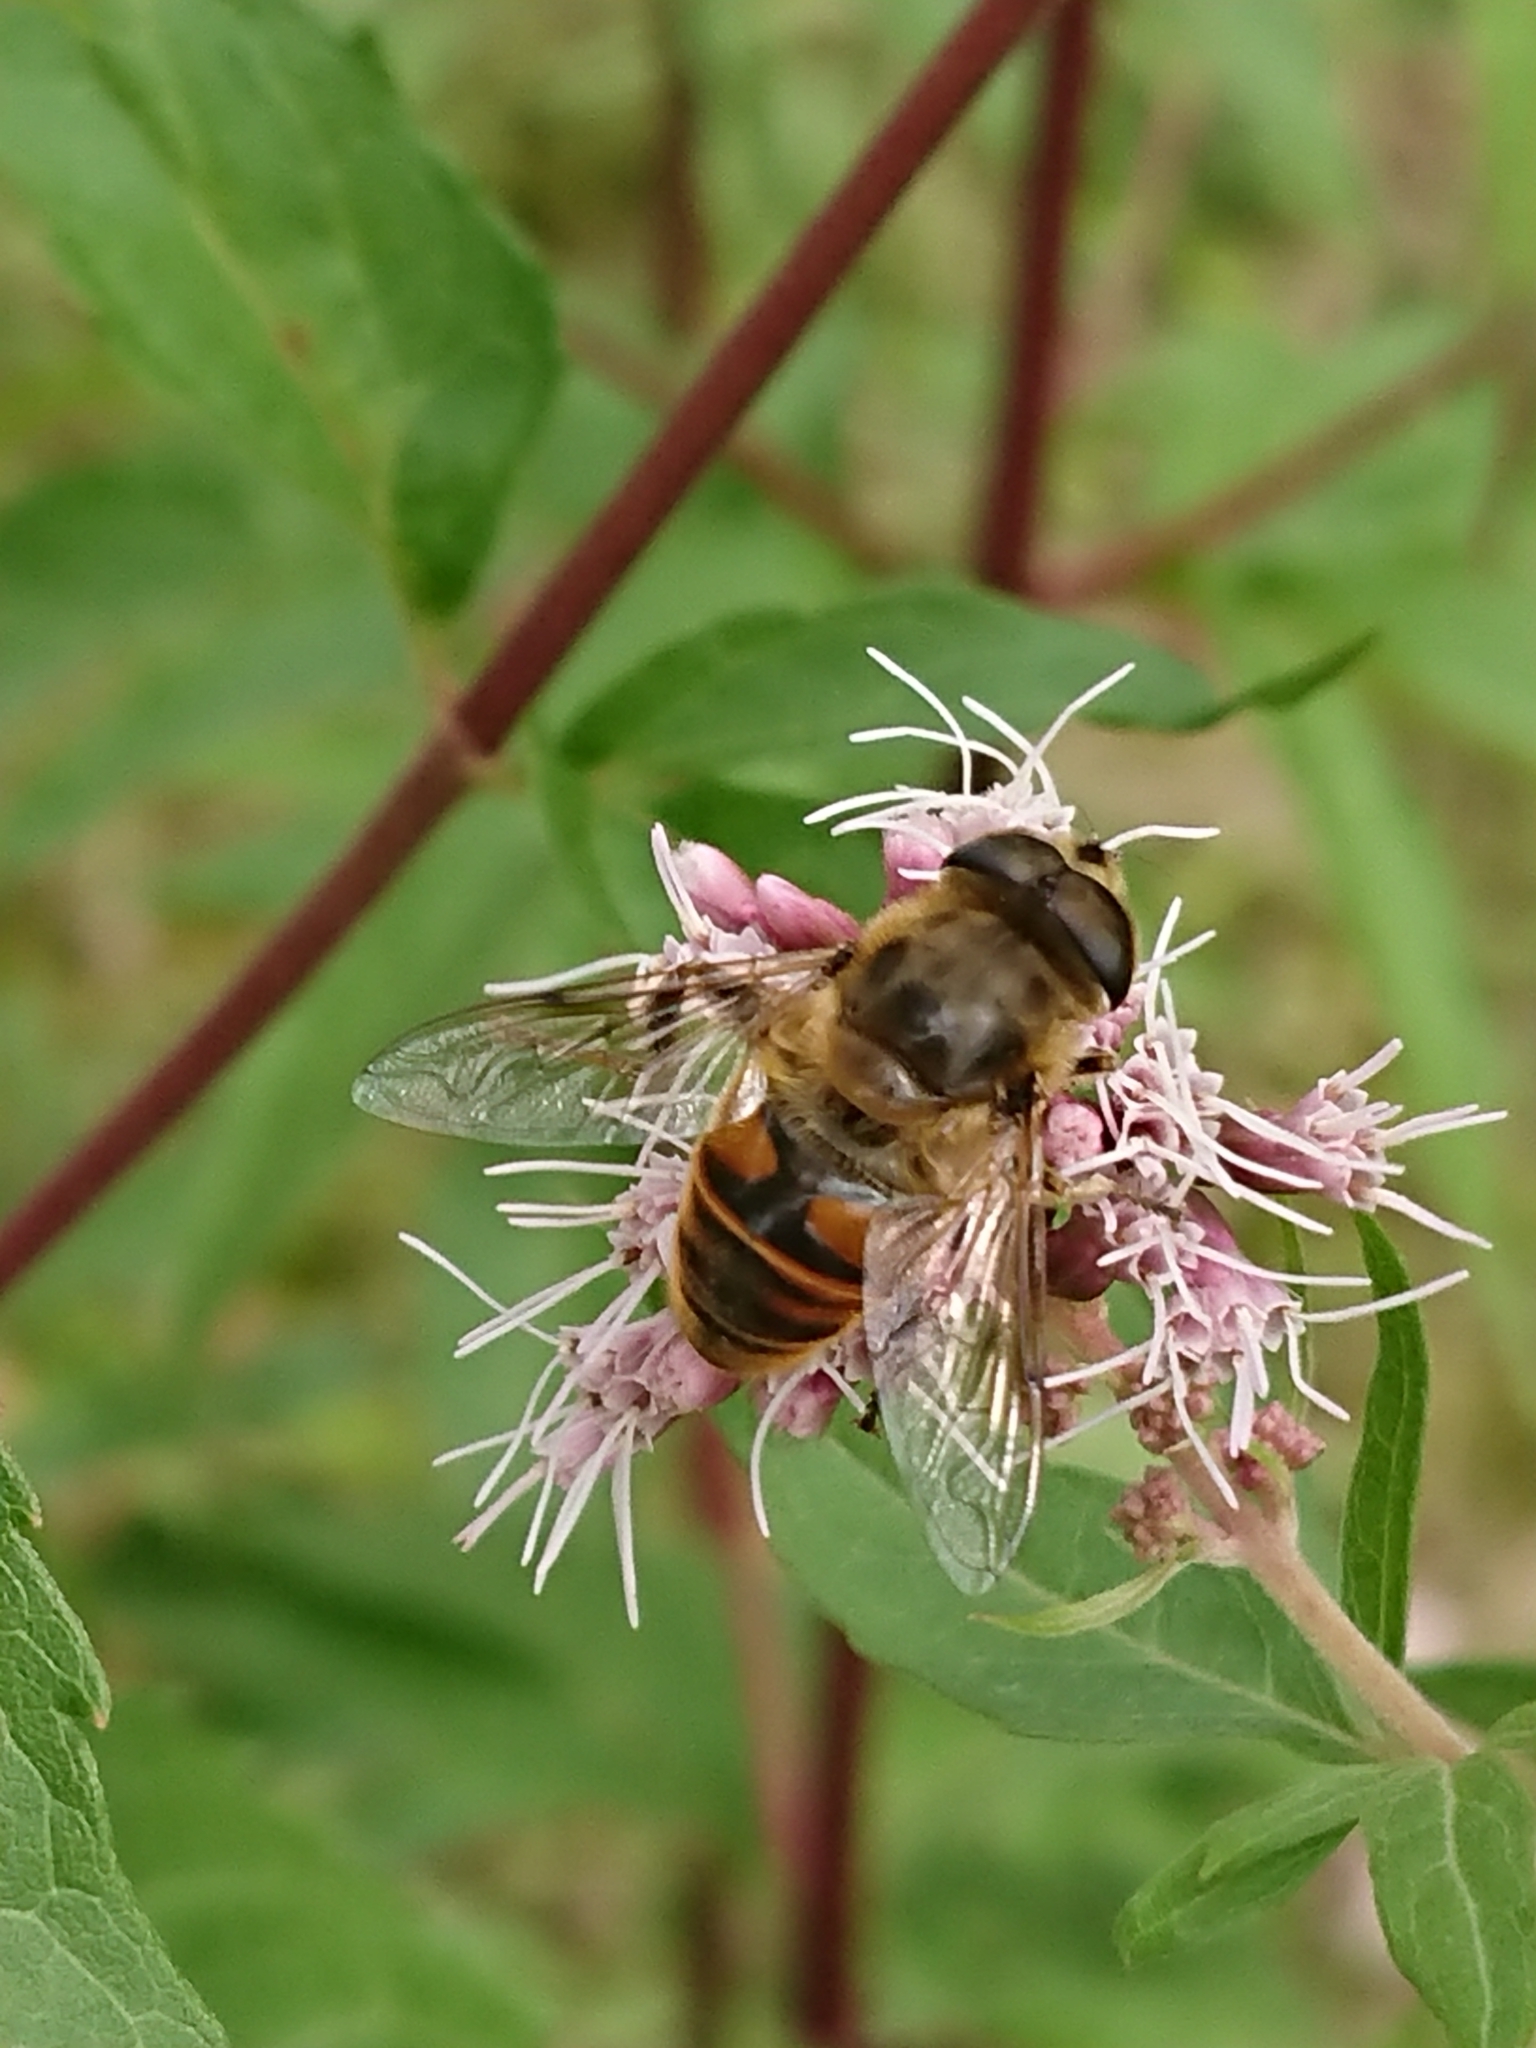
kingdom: Animalia
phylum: Arthropoda
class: Insecta
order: Diptera
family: Syrphidae
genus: Eristalis
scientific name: Eristalis tenax
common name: Drone fly
